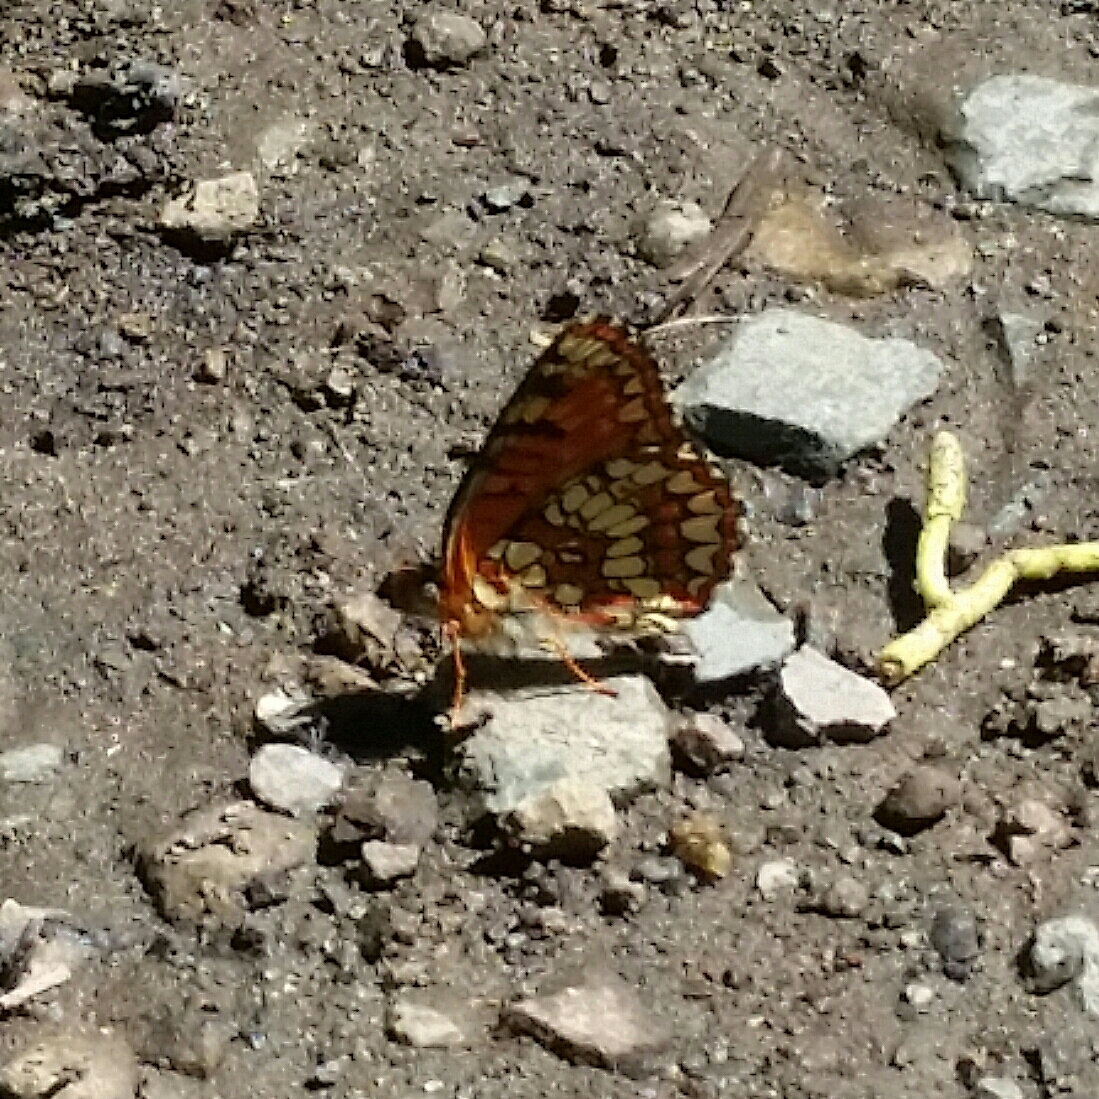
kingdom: Animalia
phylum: Arthropoda
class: Insecta
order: Lepidoptera
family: Nymphalidae
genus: Chlosyne
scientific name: Chlosyne palla
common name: Northern checkerspot
